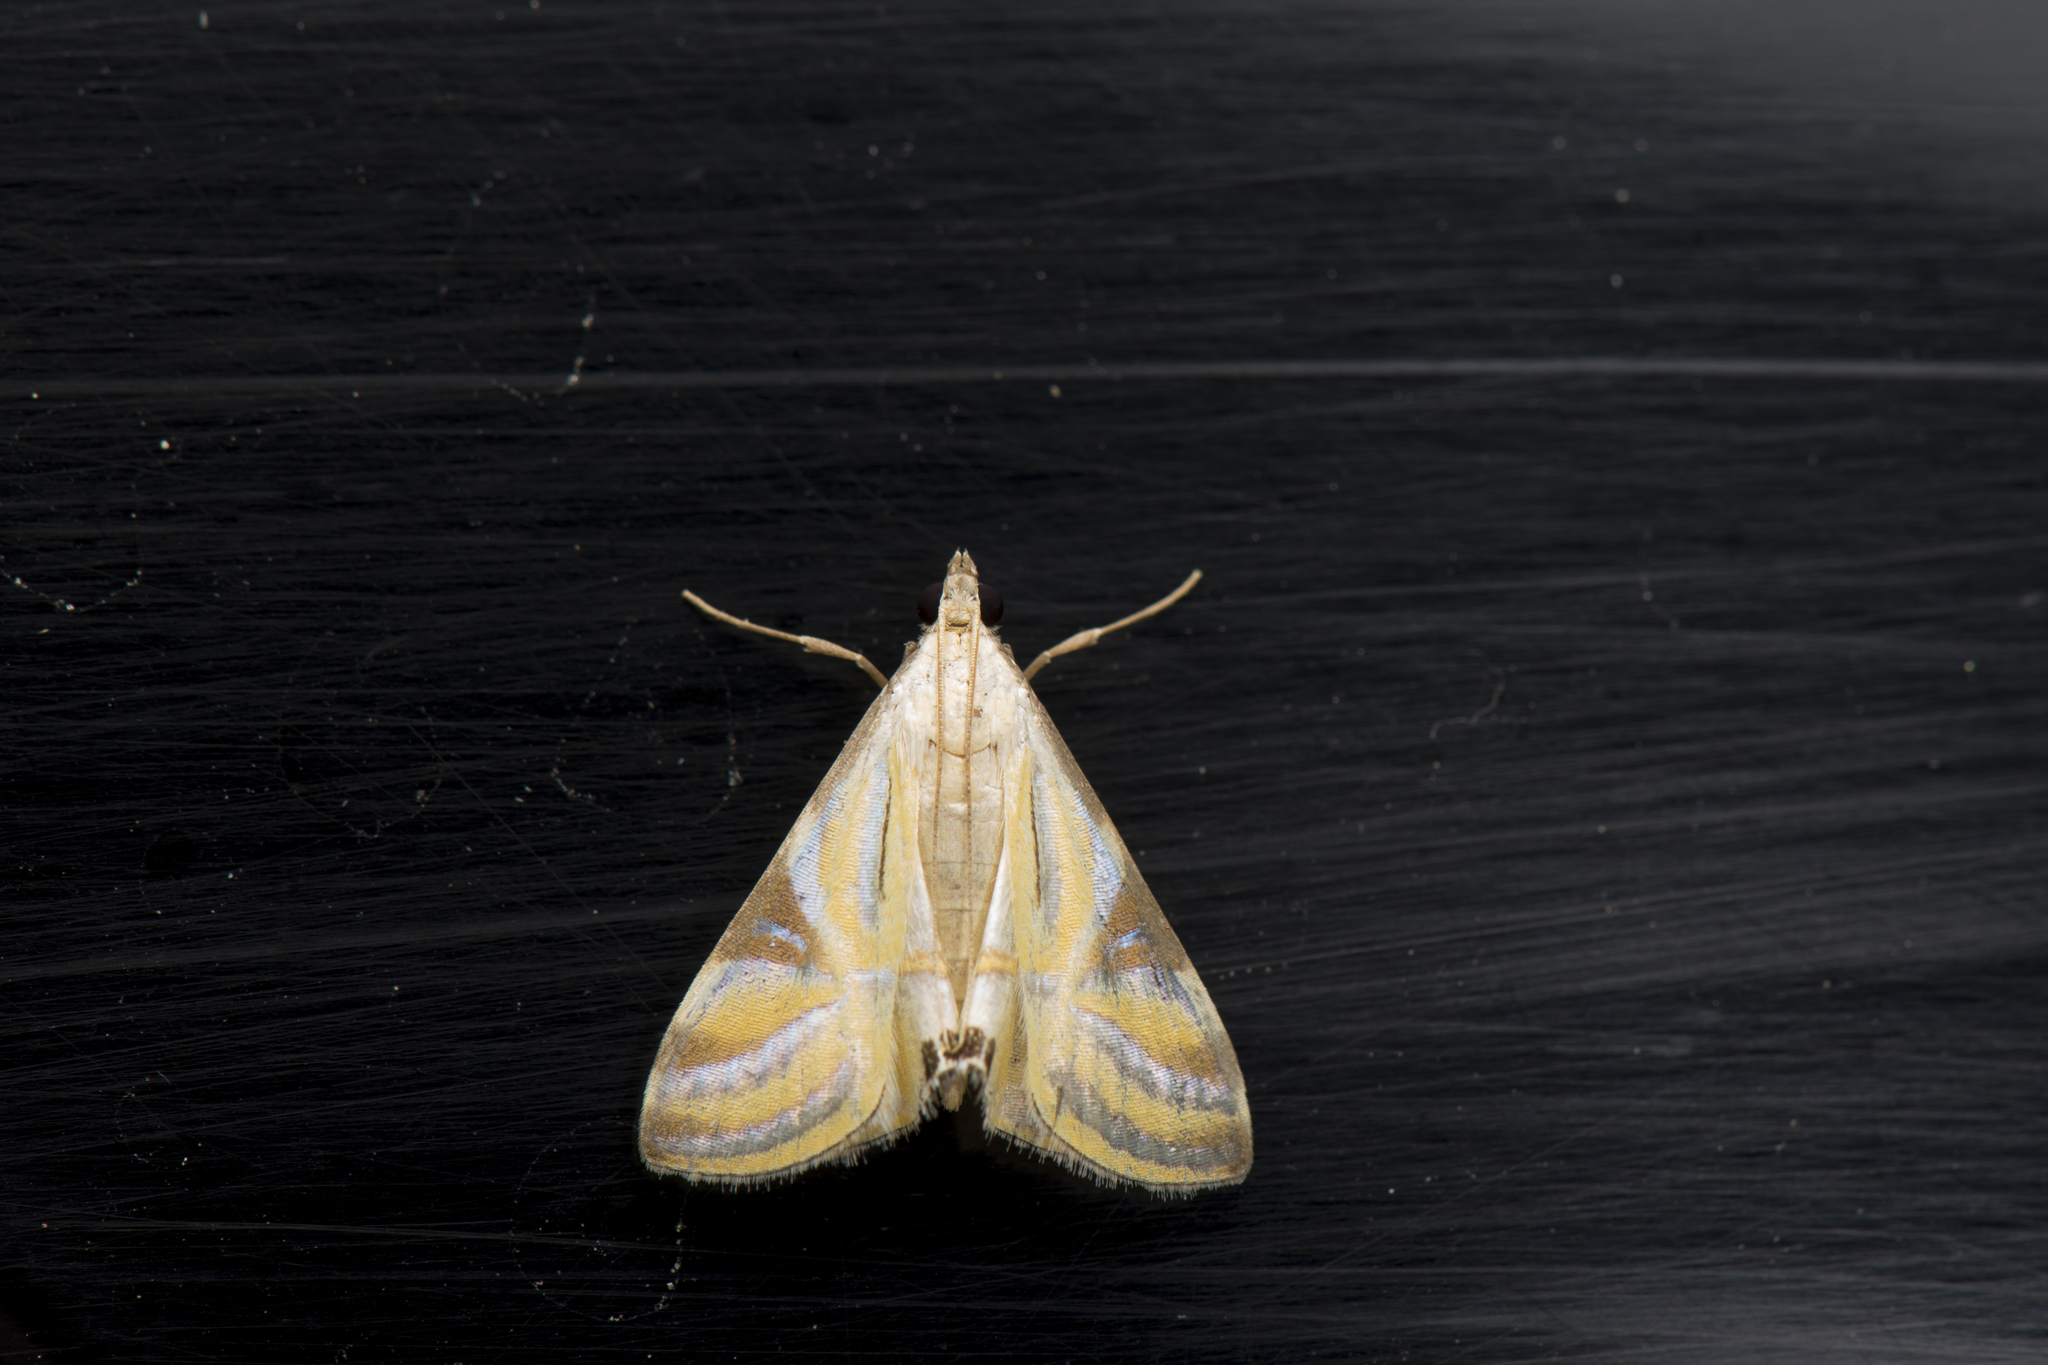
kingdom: Animalia
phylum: Arthropoda
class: Insecta
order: Lepidoptera
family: Crambidae
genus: Talanga
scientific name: Talanga sexpunctalis
